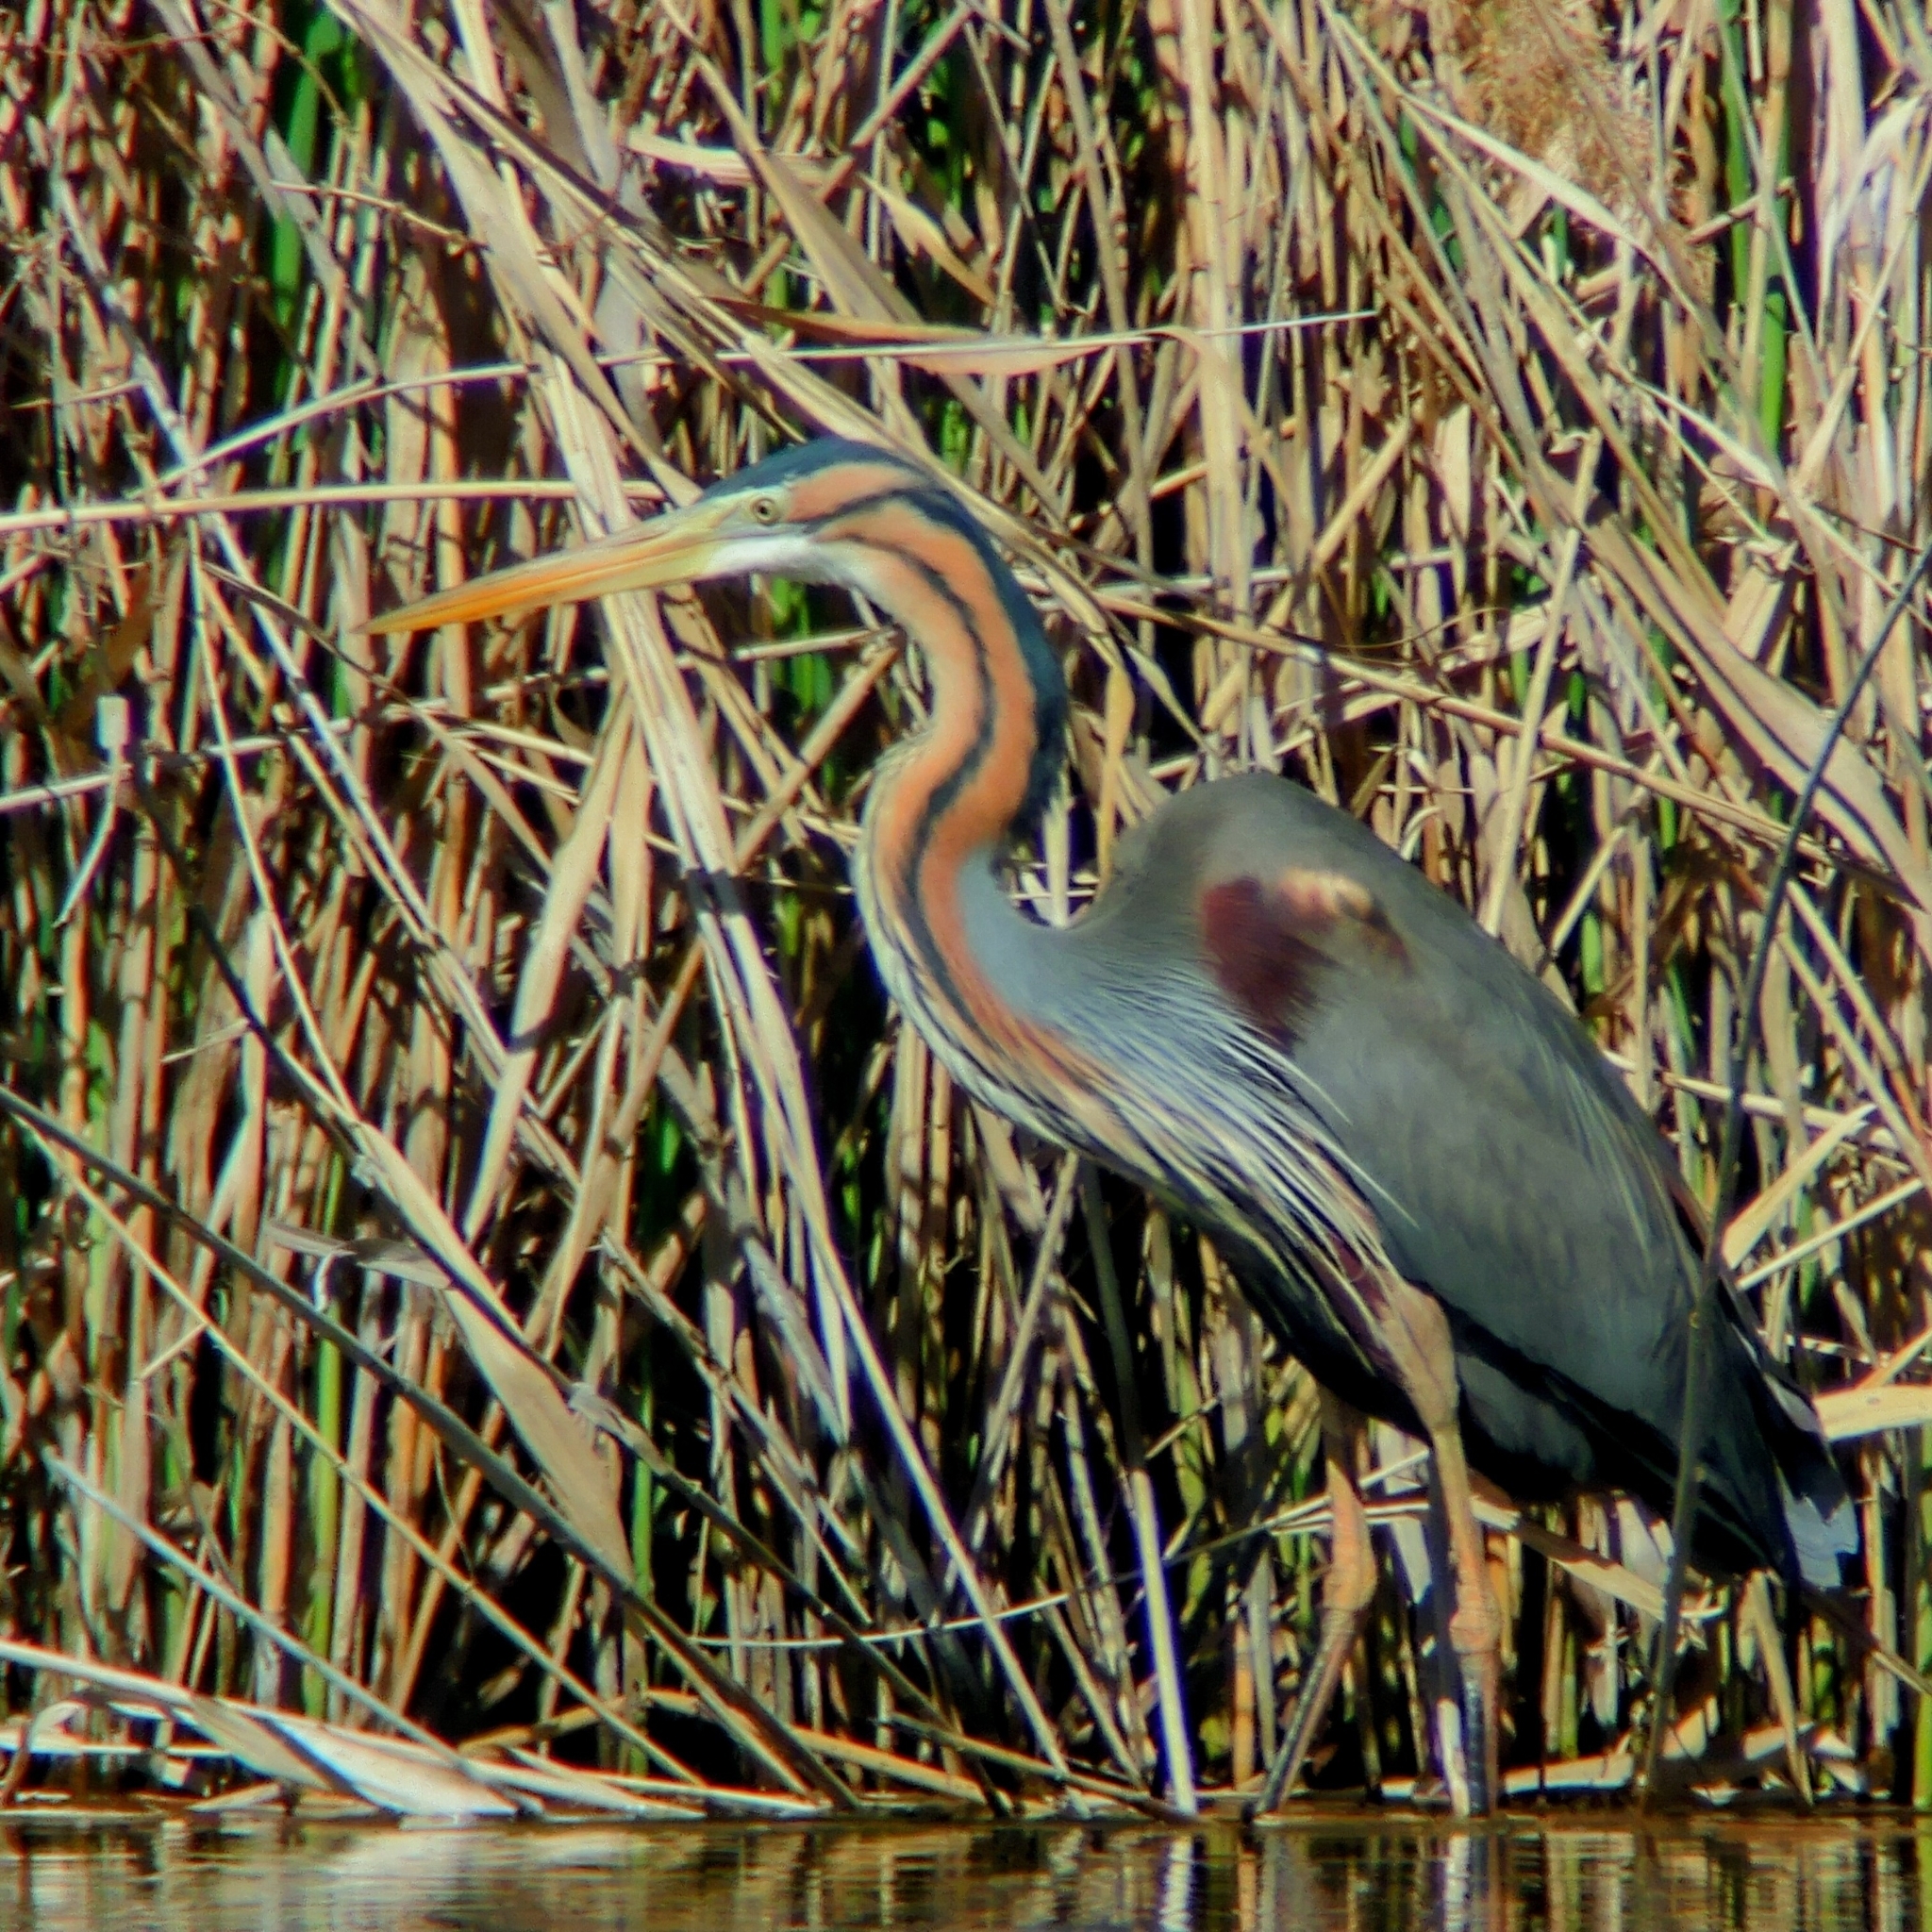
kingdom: Animalia
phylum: Chordata
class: Aves
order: Pelecaniformes
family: Ardeidae
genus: Ardea
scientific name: Ardea purpurea
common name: Purple heron
